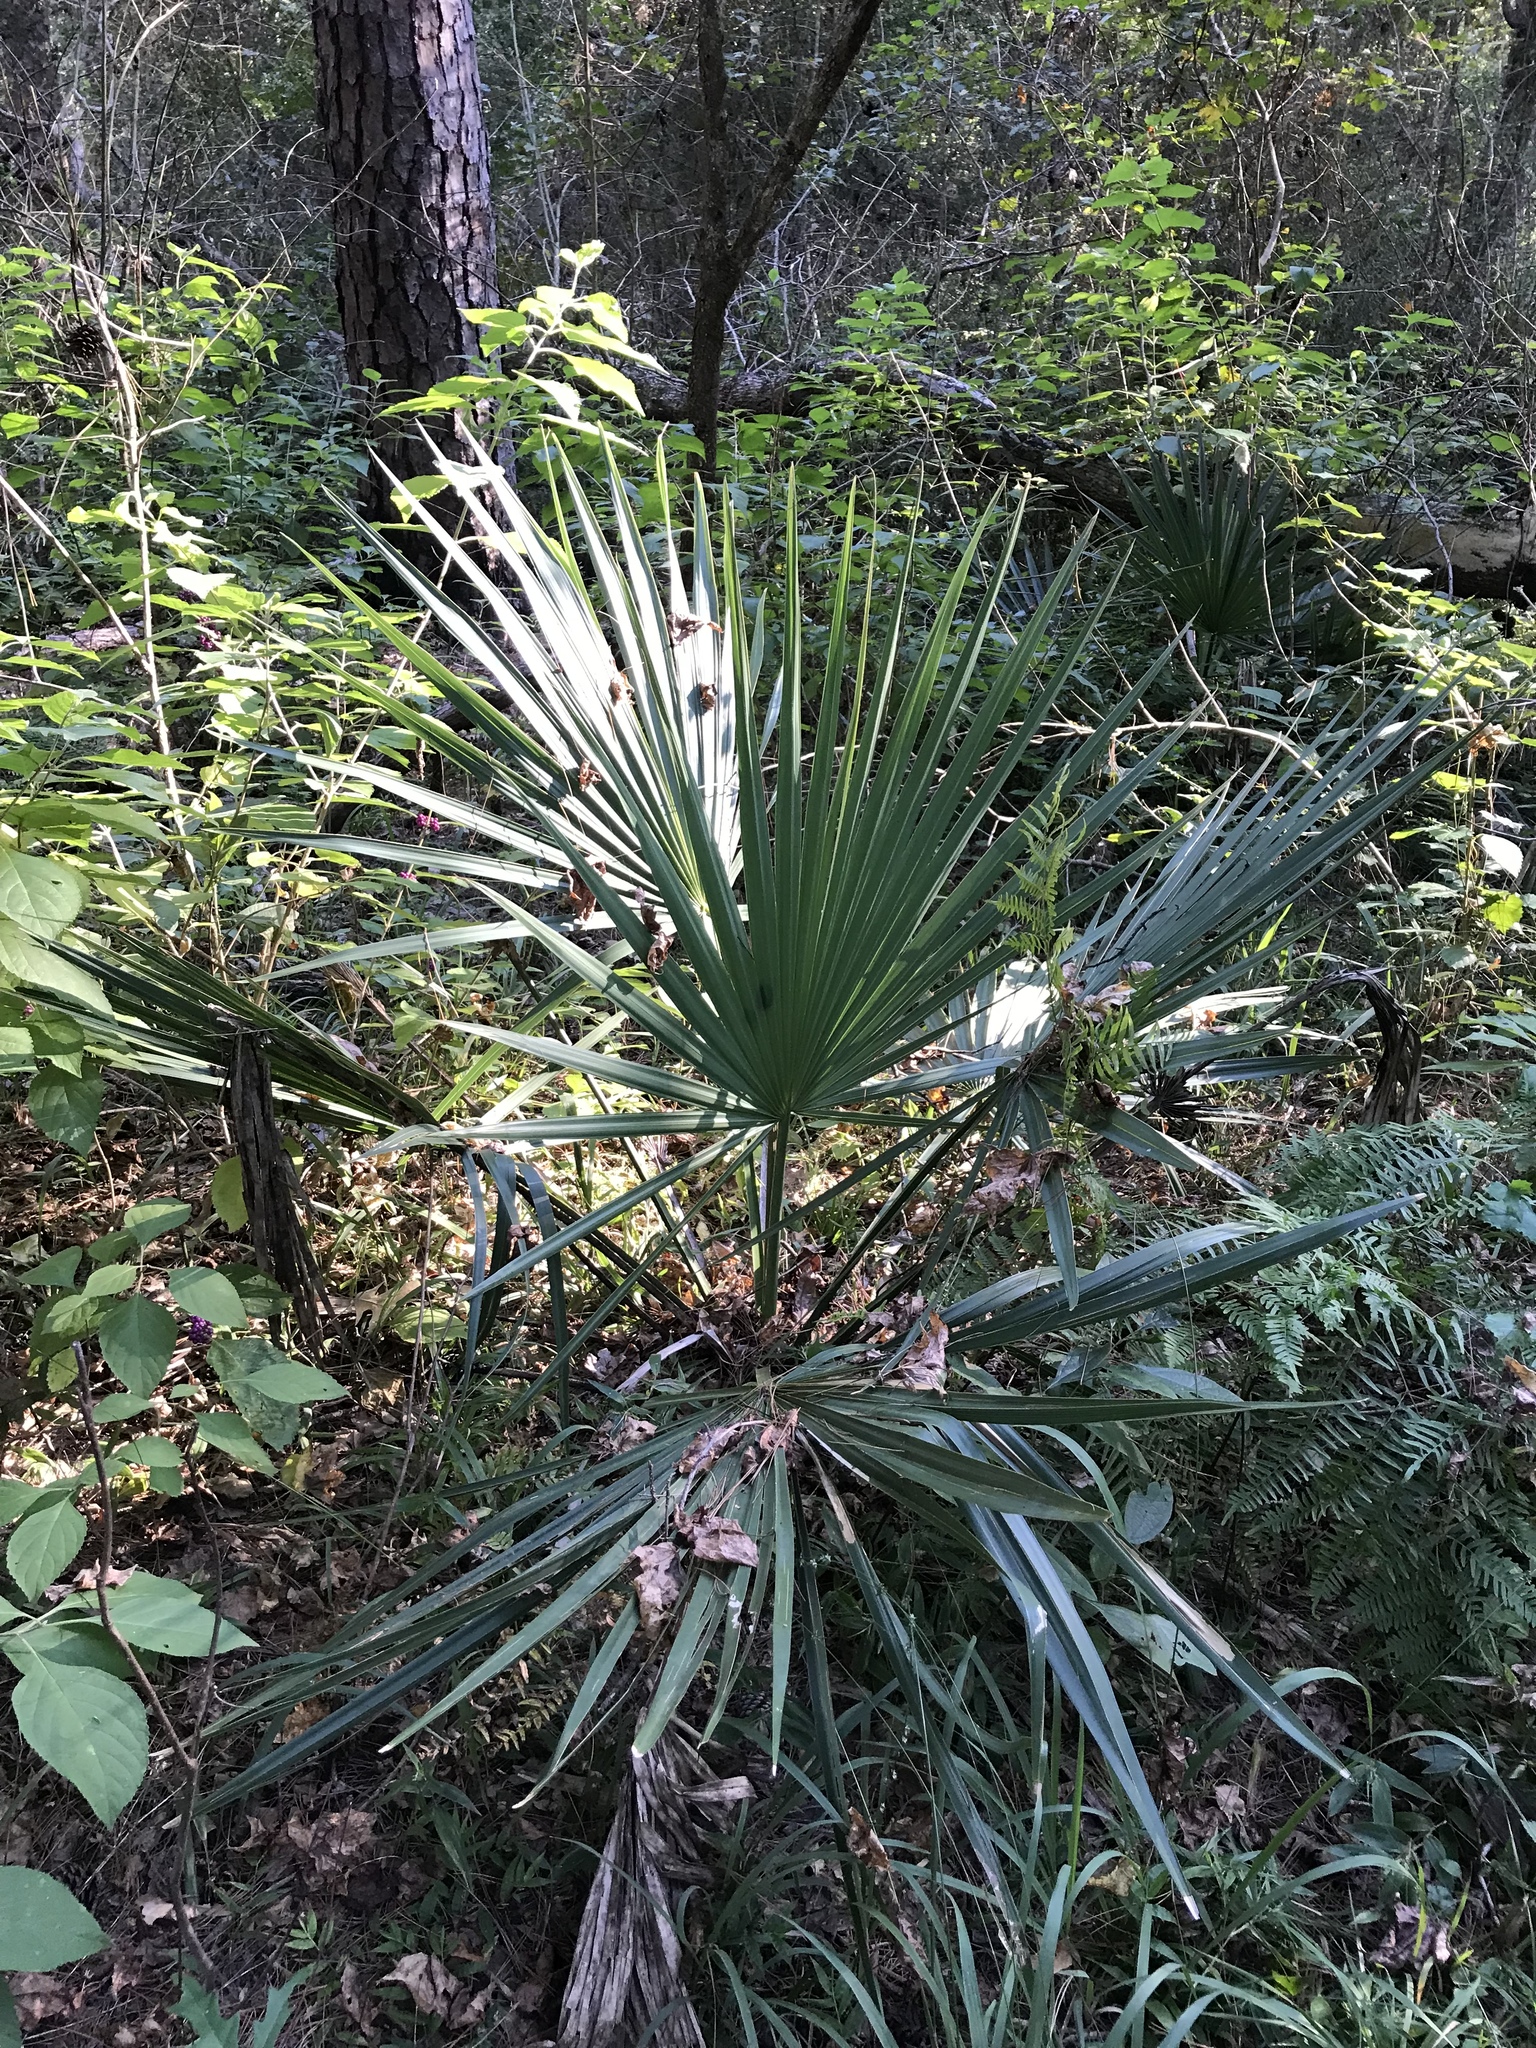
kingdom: Plantae
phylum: Tracheophyta
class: Liliopsida
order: Arecales
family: Arecaceae
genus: Sabal
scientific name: Sabal minor
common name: Dwarf palmetto
